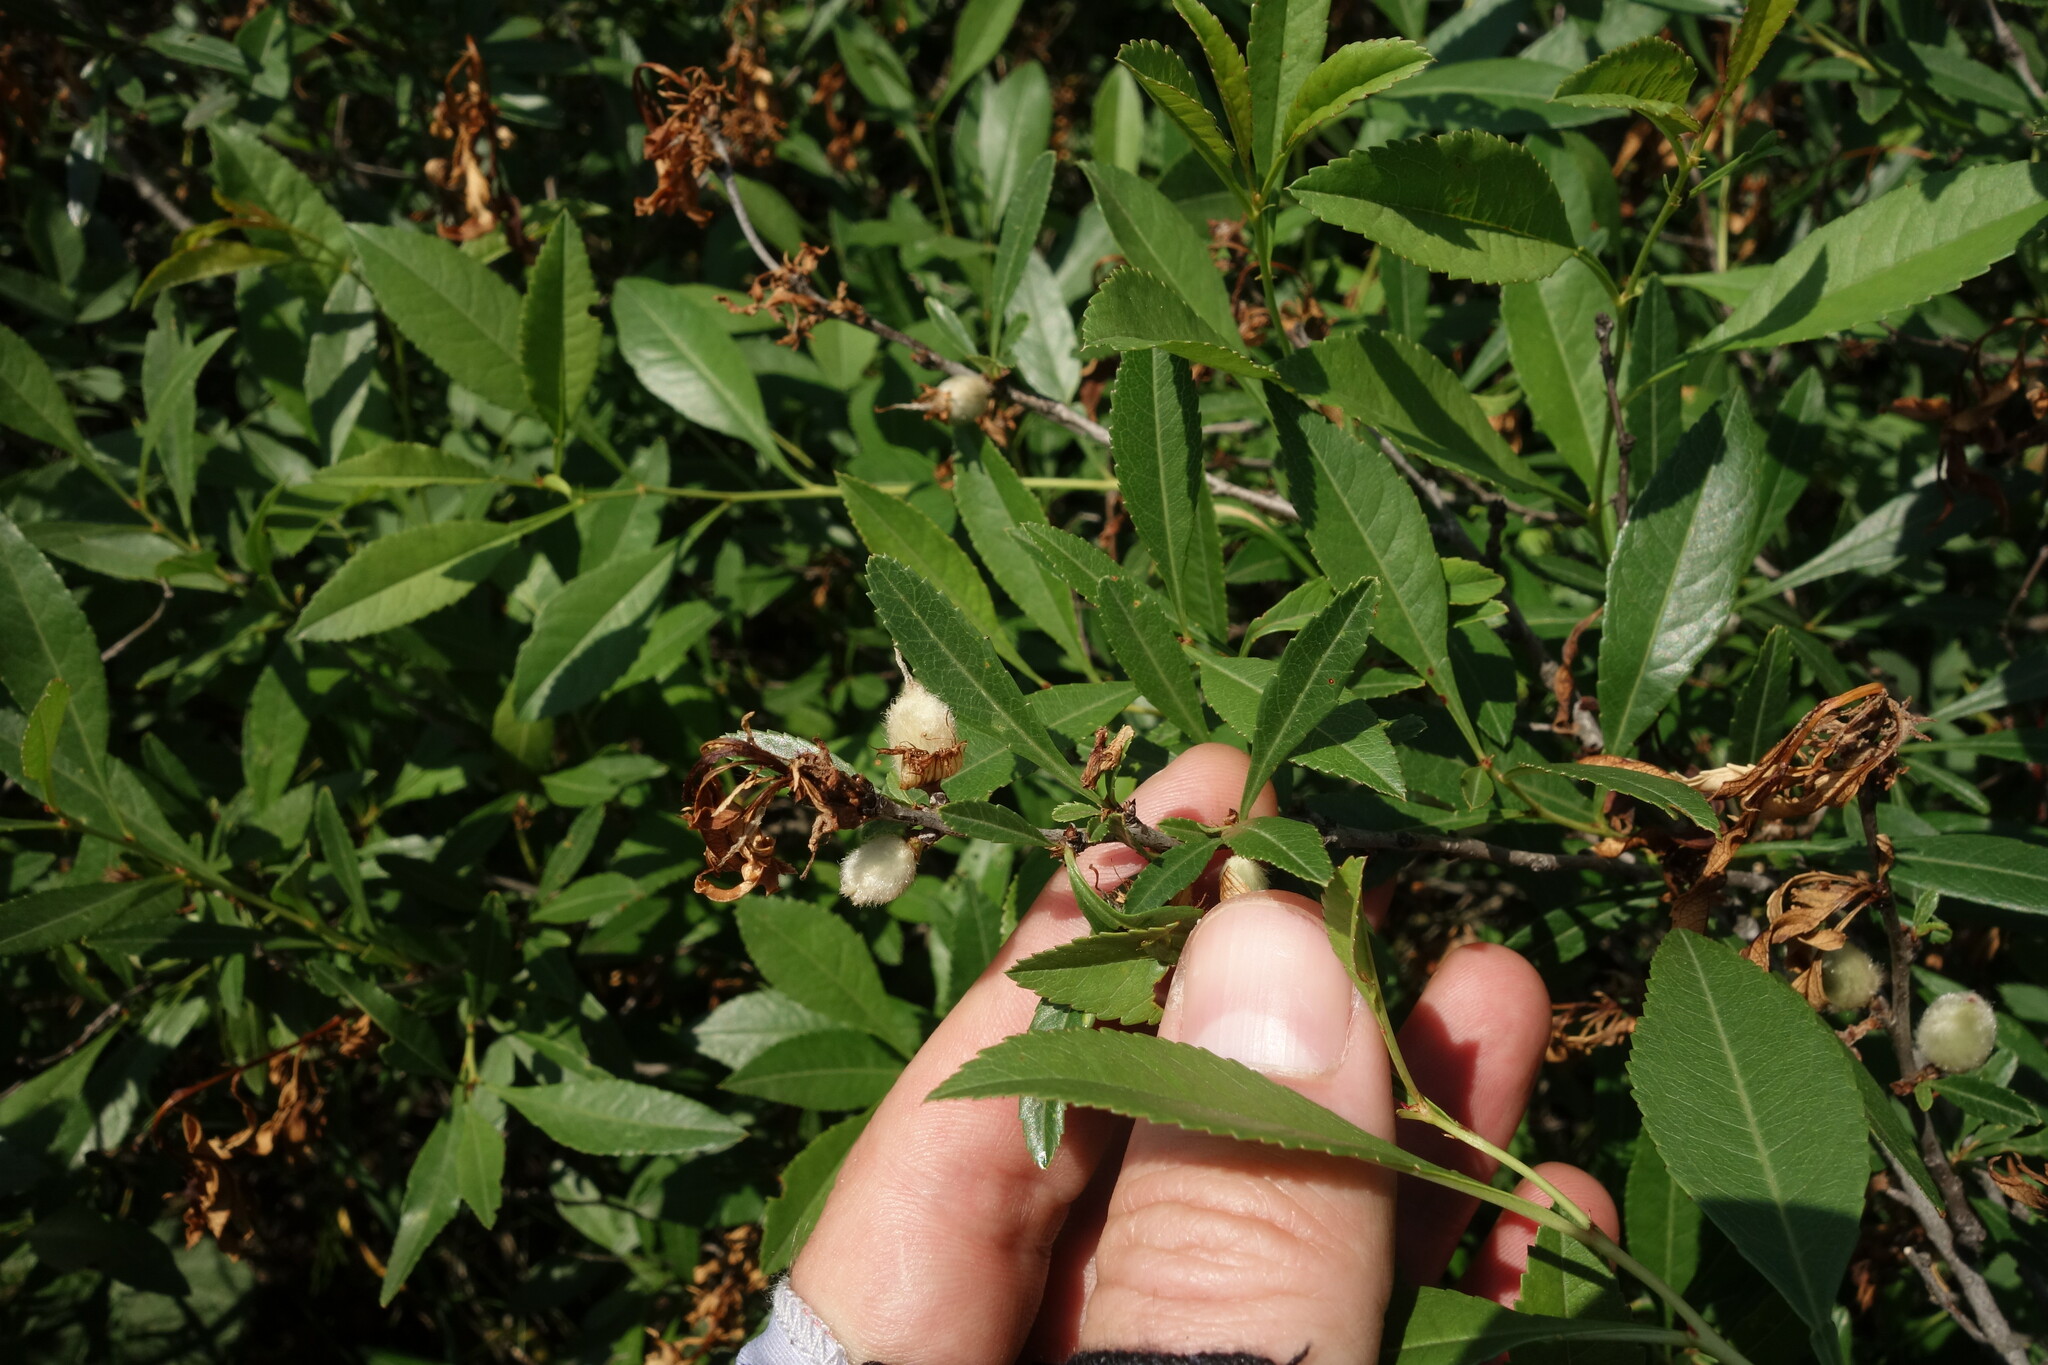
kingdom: Plantae
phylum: Tracheophyta
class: Magnoliopsida
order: Rosales
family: Rosaceae
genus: Prunus
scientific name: Prunus tenella
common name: Dwarf russian almond
